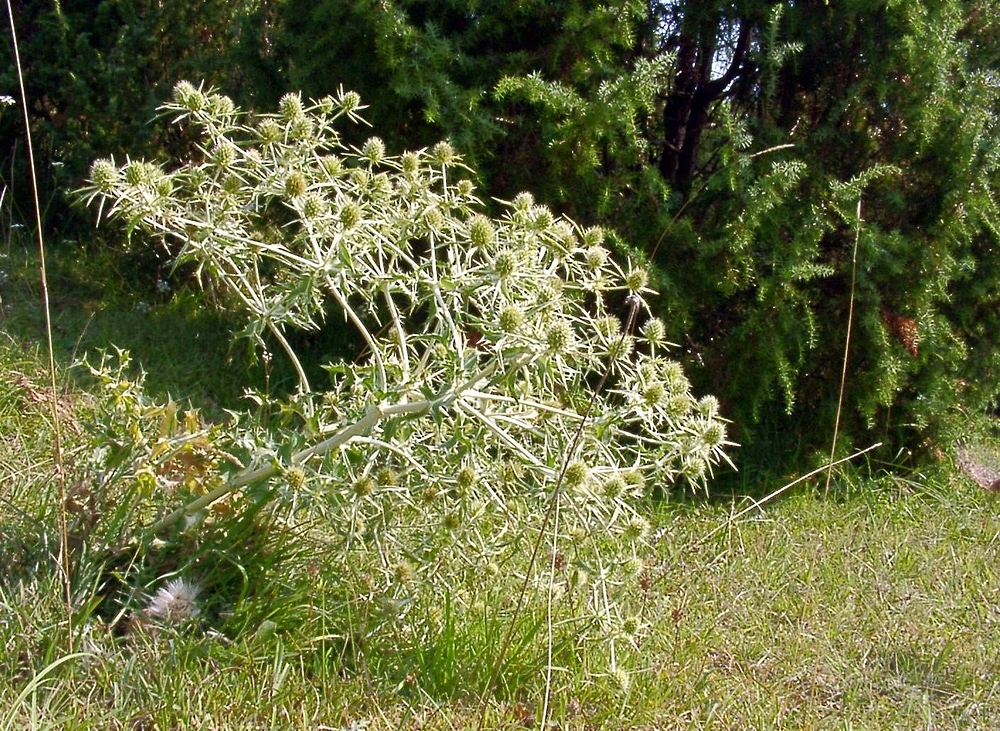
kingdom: Plantae
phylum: Tracheophyta
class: Magnoliopsida
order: Apiales
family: Apiaceae
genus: Eryngium
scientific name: Eryngium campestre
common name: Field eryngo
